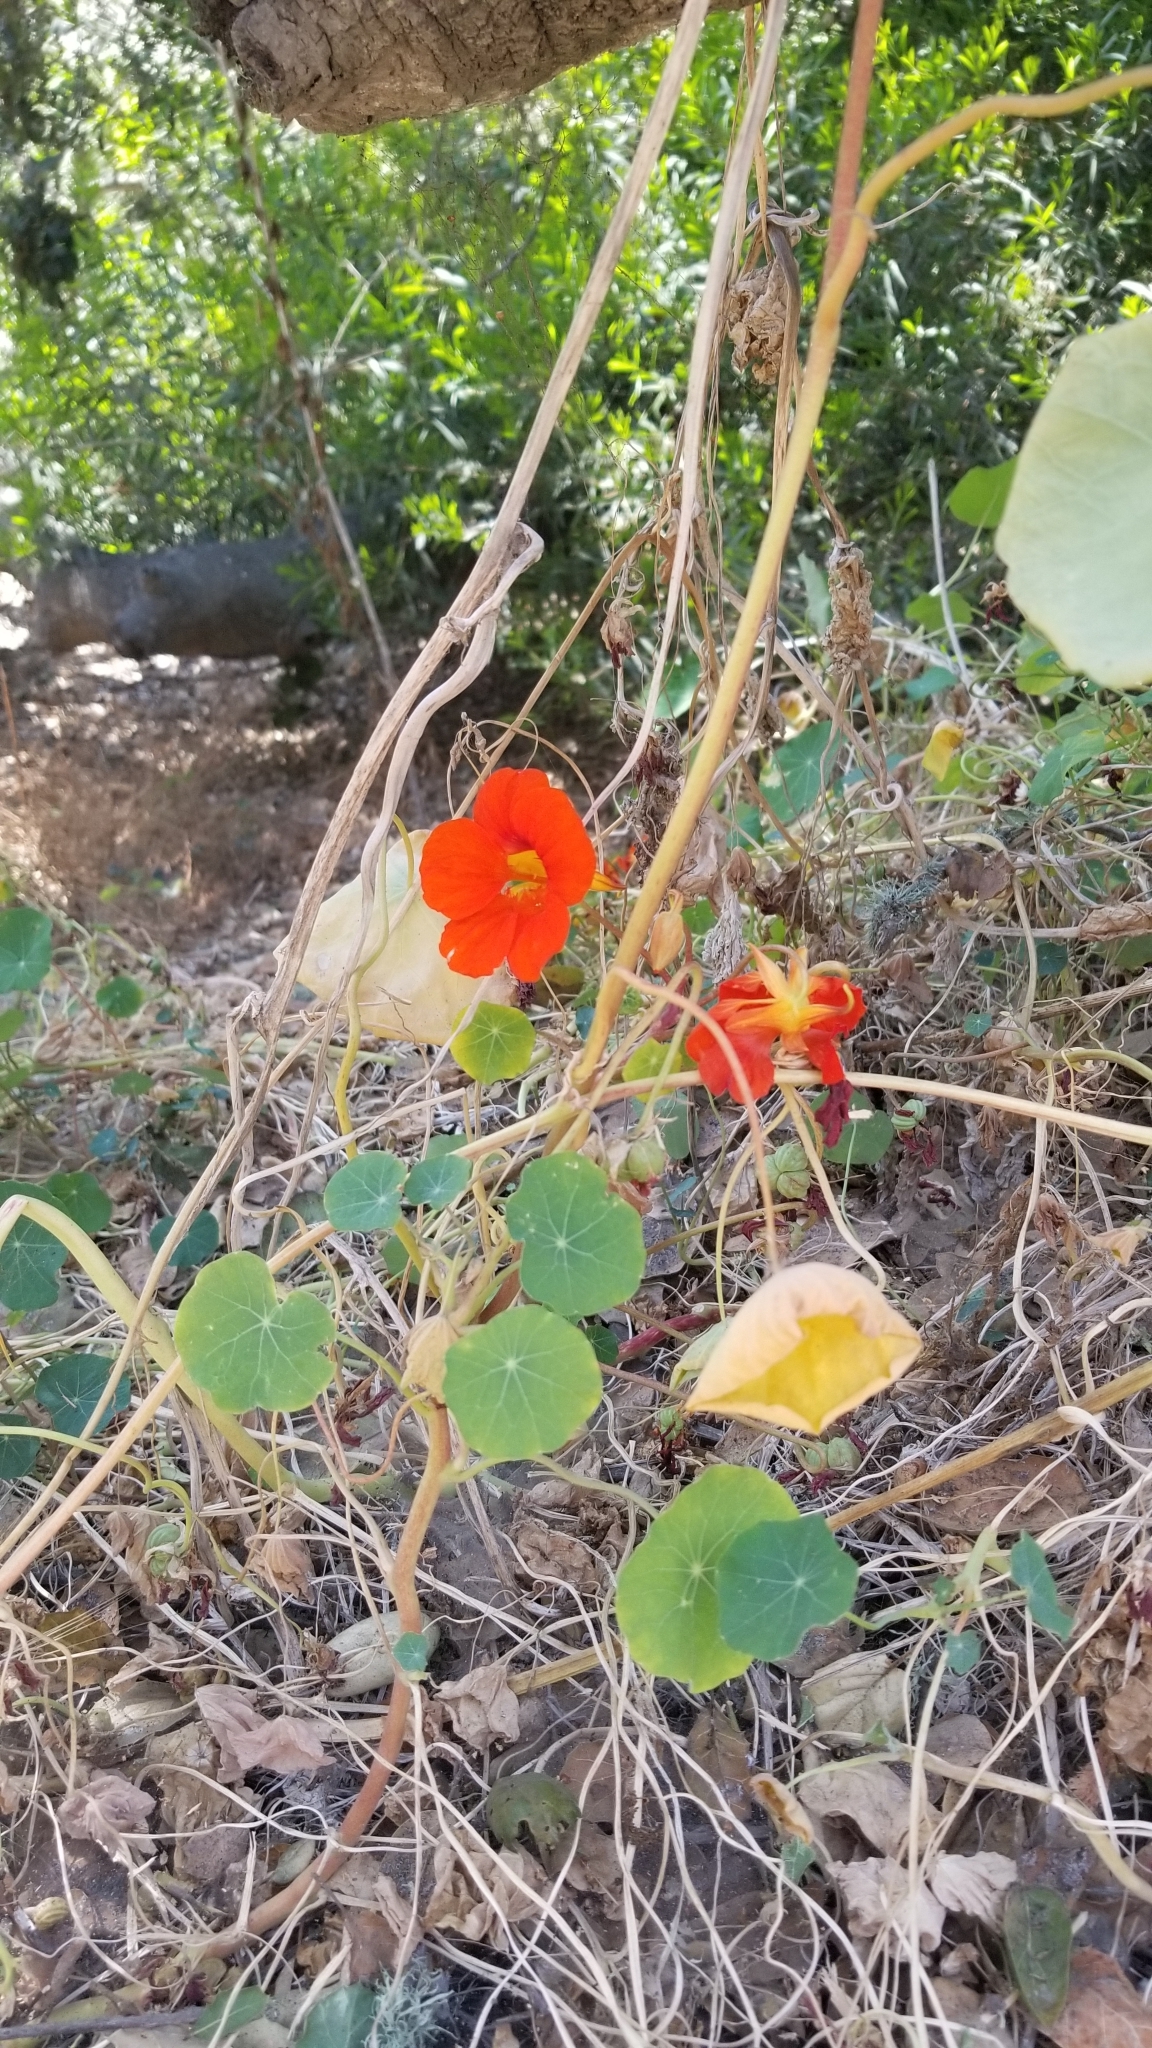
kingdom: Plantae
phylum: Tracheophyta
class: Magnoliopsida
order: Brassicales
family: Tropaeolaceae
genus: Tropaeolum
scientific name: Tropaeolum majus
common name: Nasturtium
